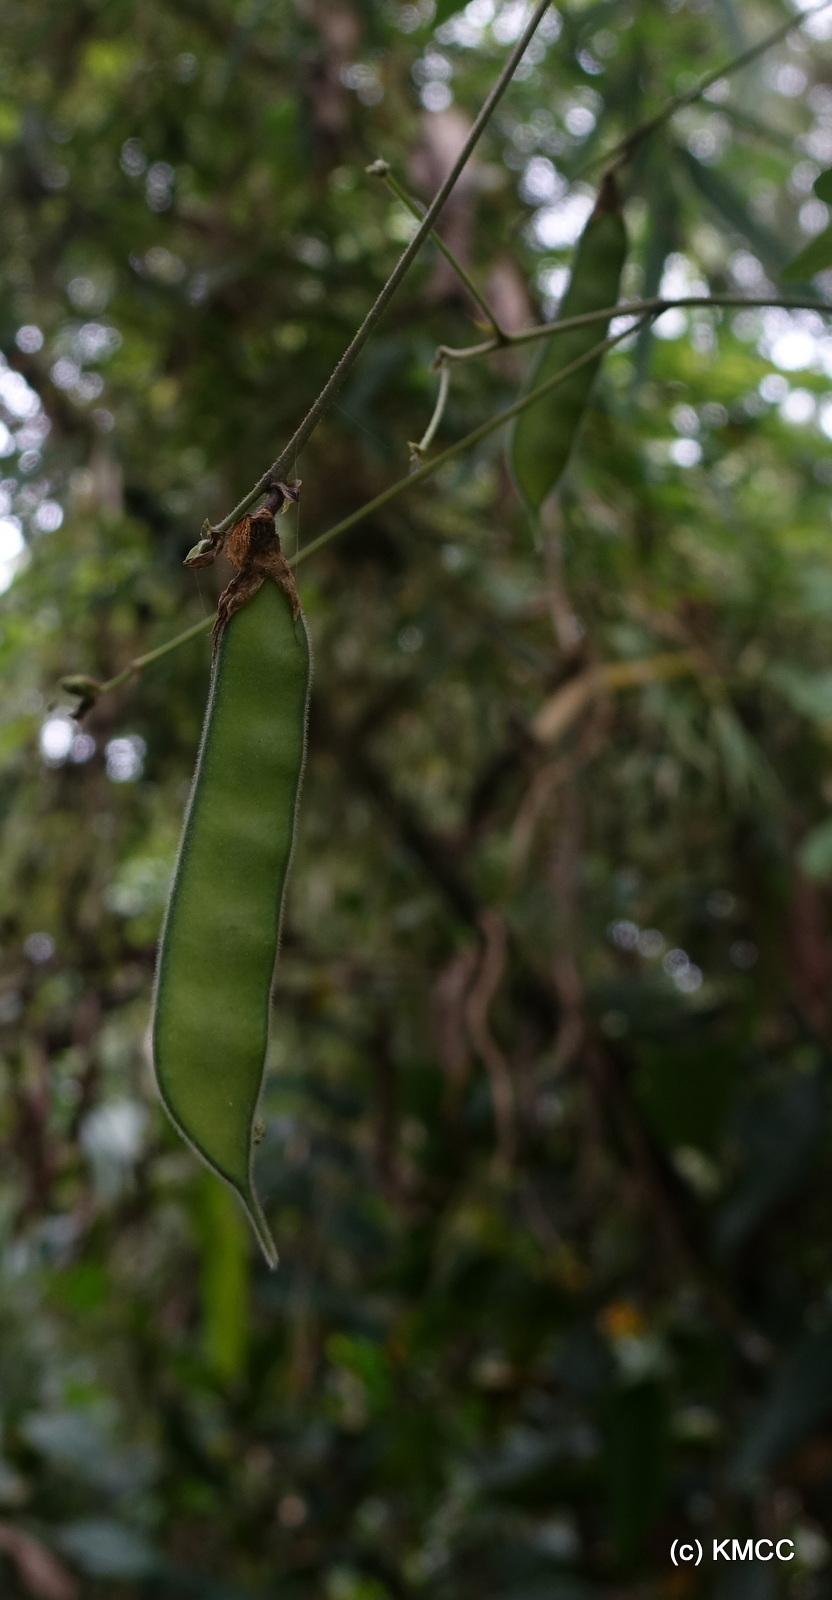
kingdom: Plantae
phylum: Tracheophyta
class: Magnoliopsida
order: Fabales
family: Fabaceae
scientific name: Fabaceae
